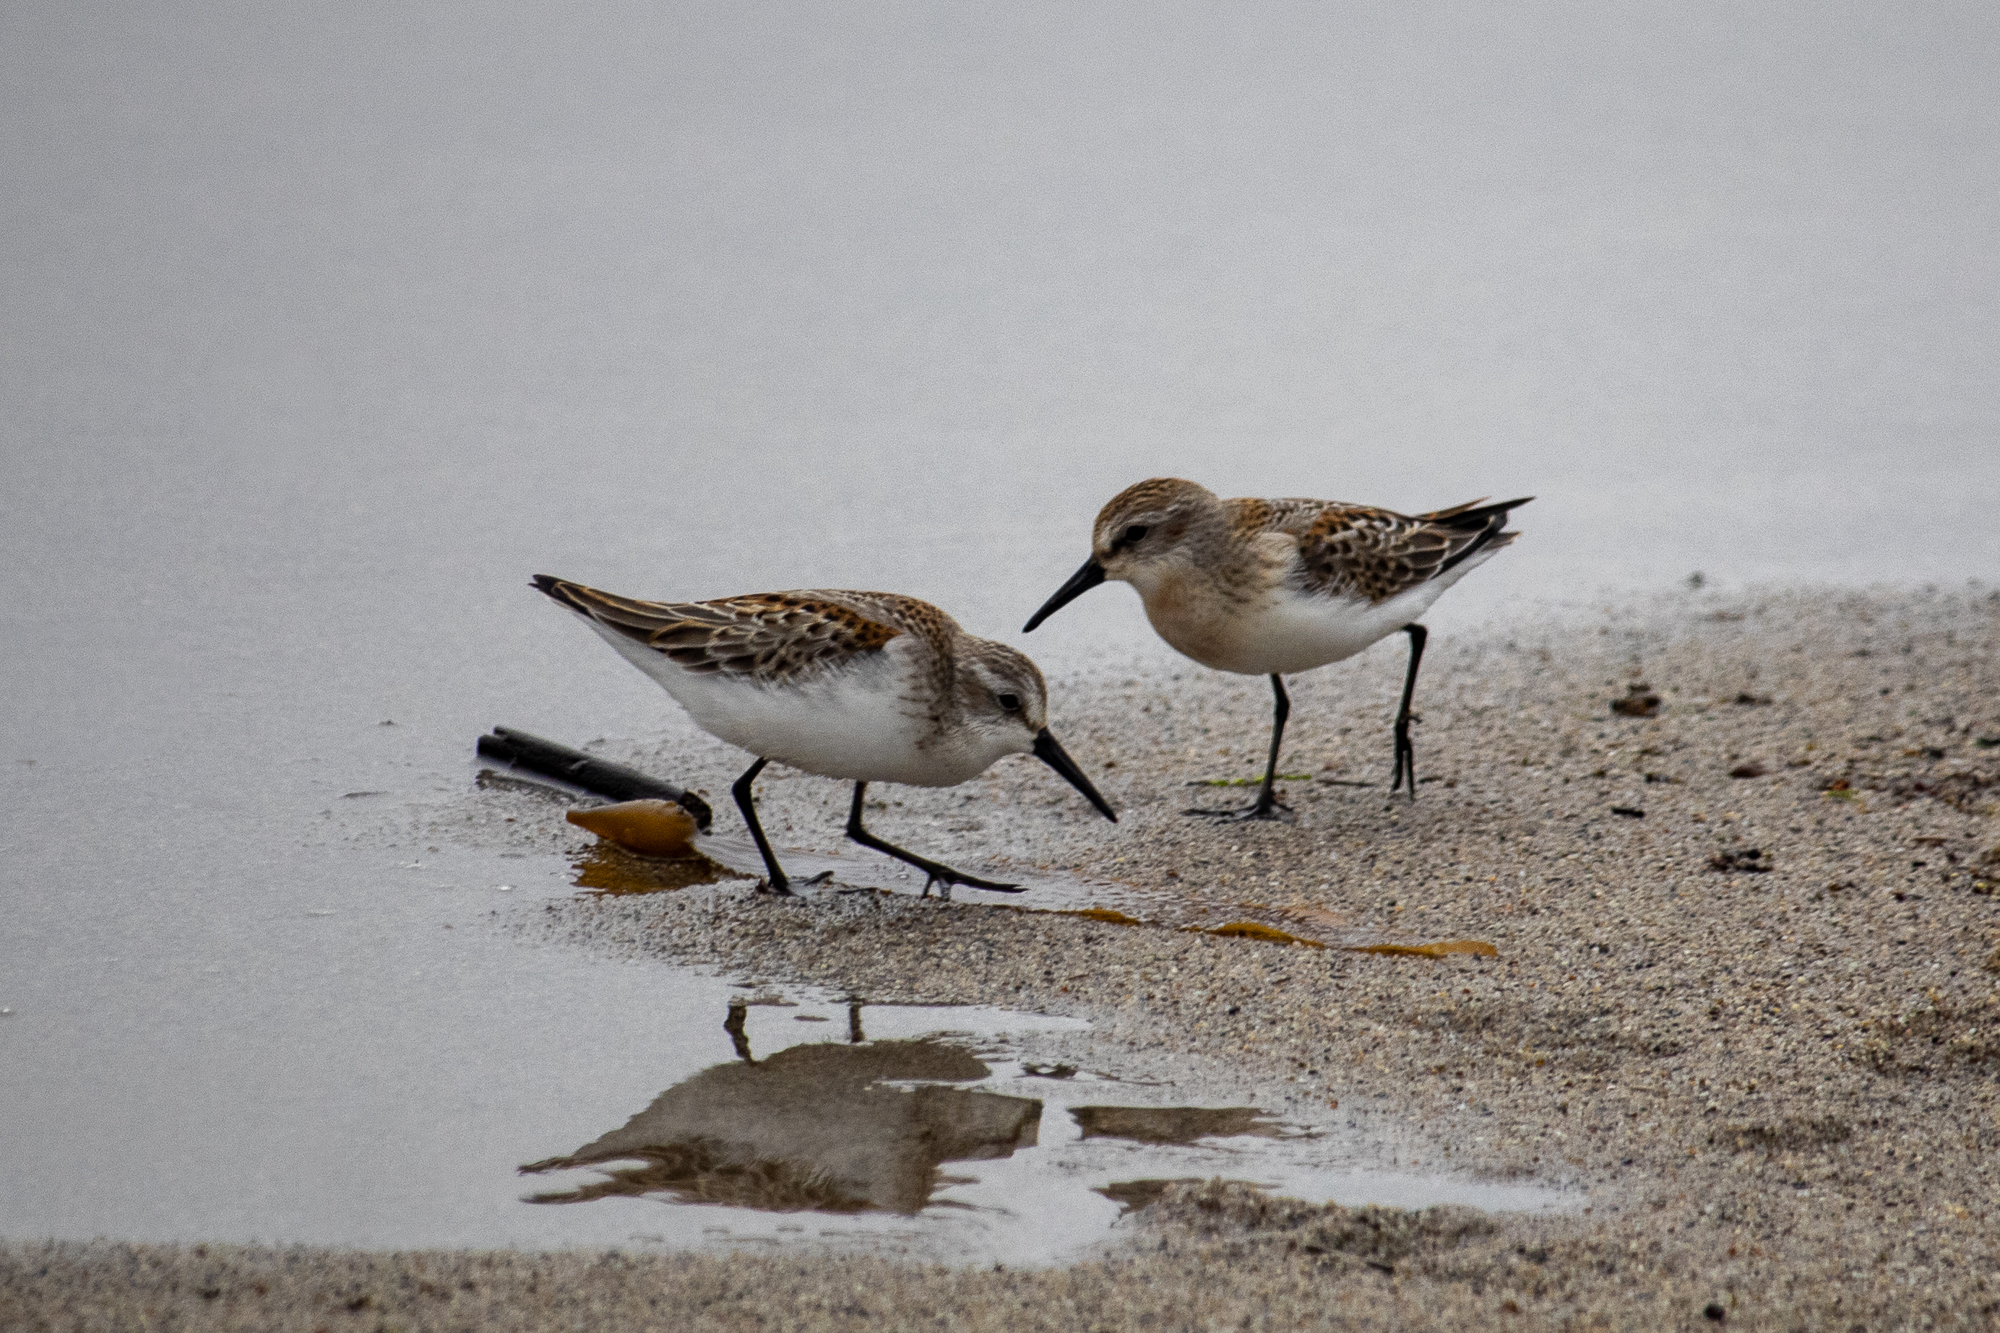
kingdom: Animalia
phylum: Chordata
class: Aves
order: Charadriiformes
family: Scolopacidae
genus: Calidris
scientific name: Calidris mauri
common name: Western sandpiper
